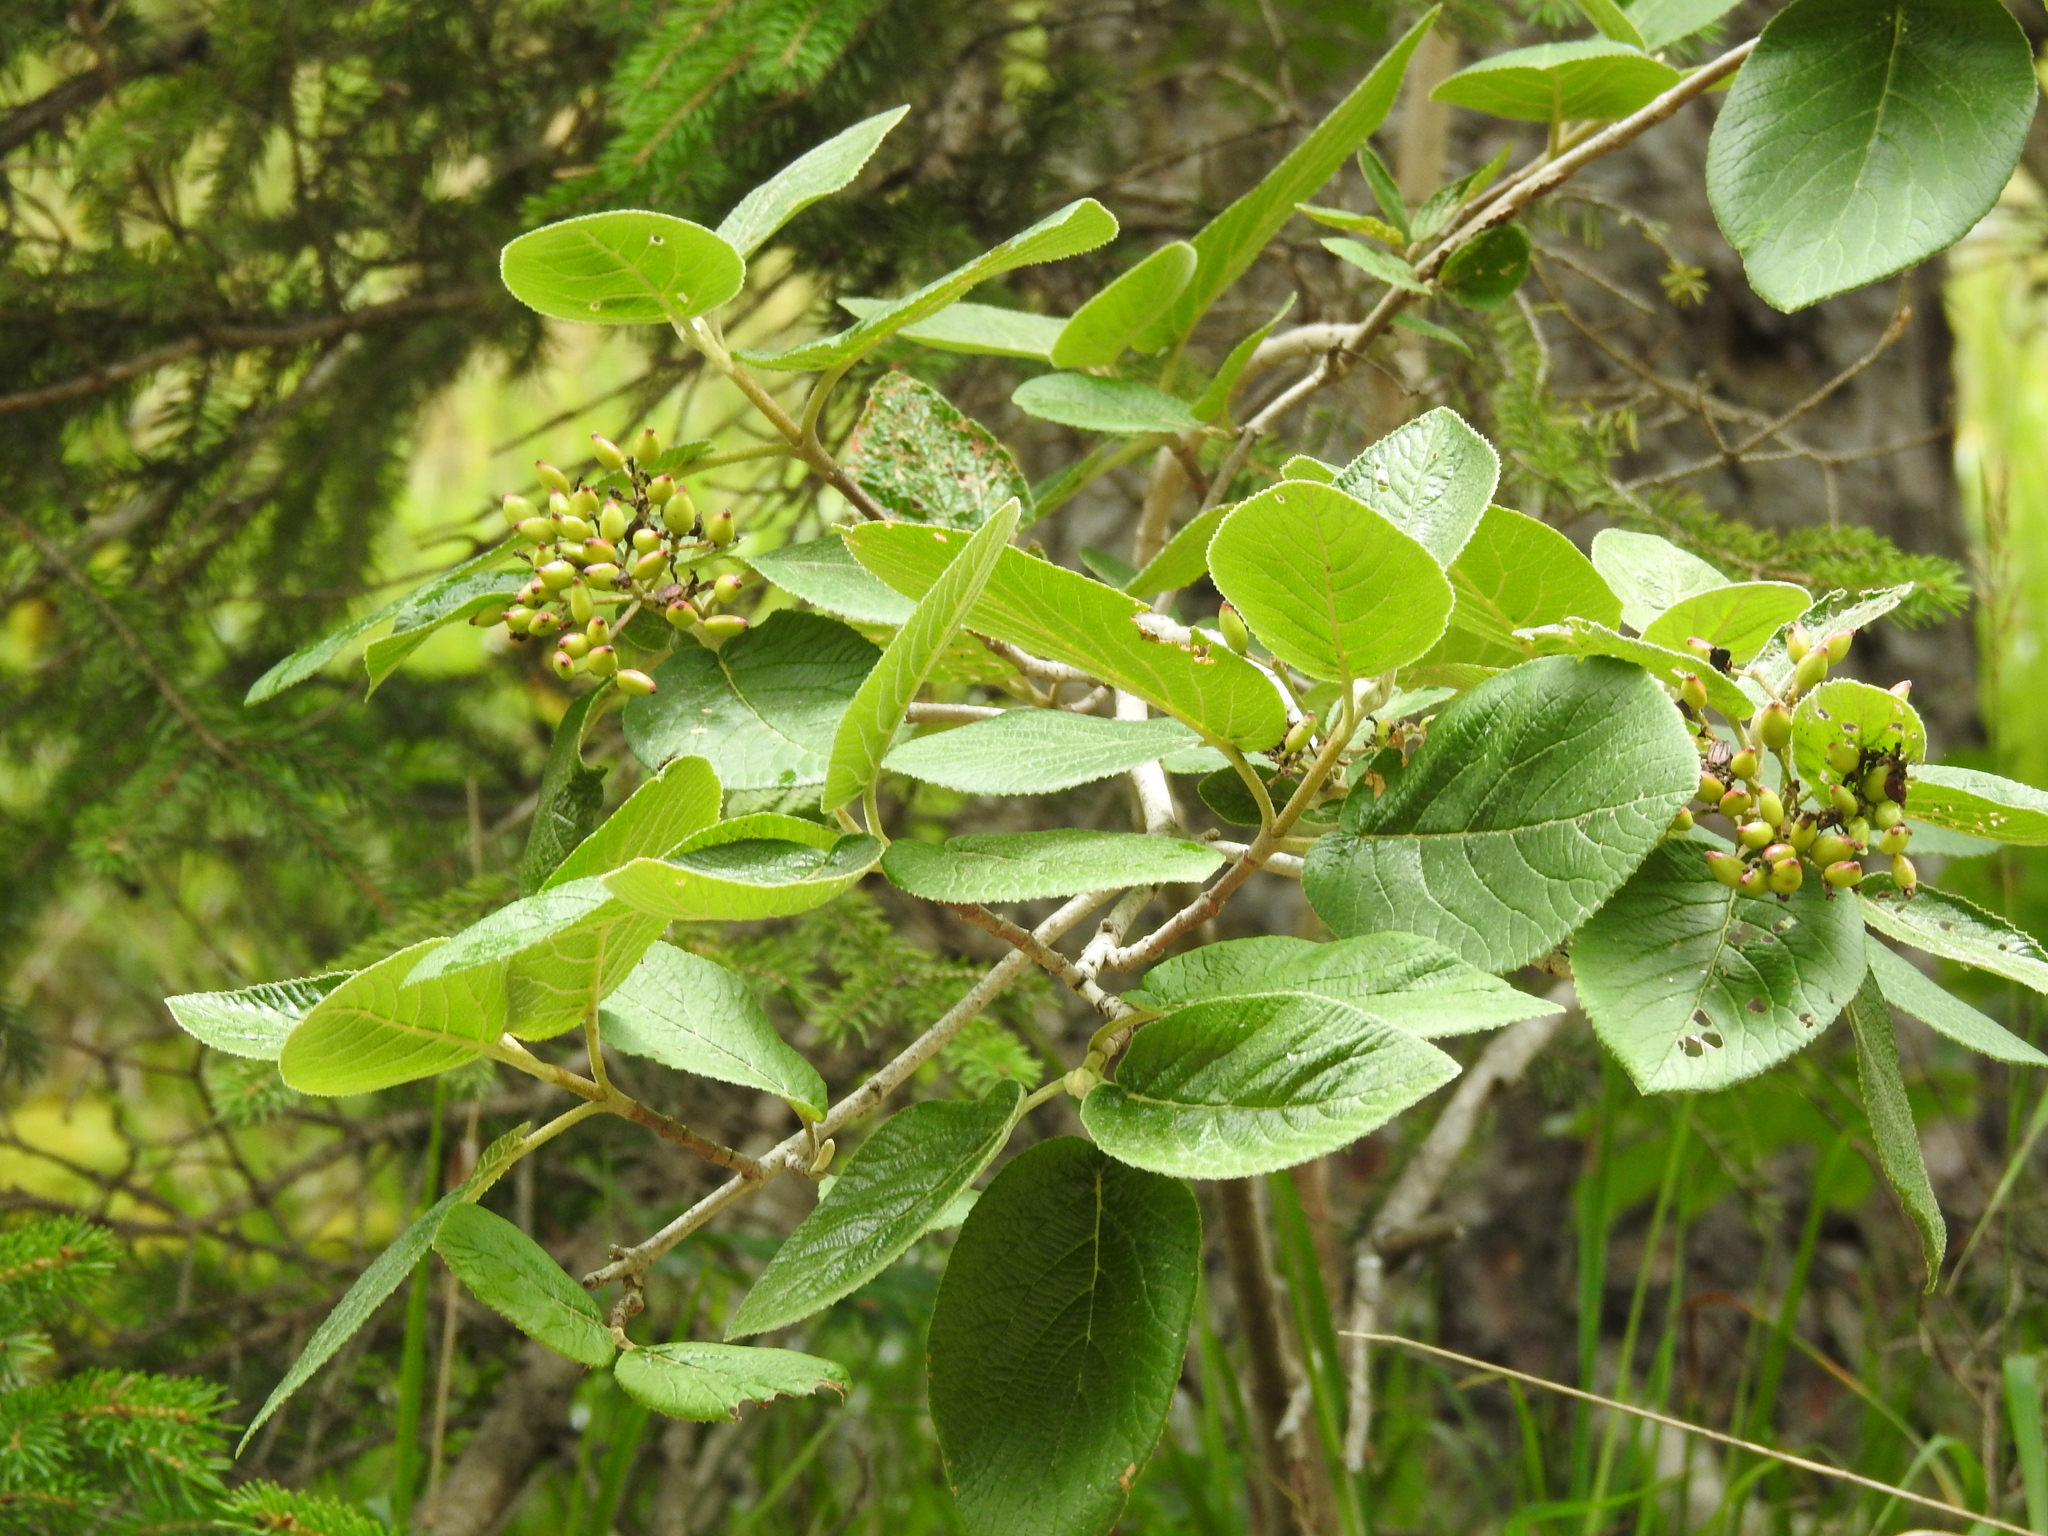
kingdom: Plantae
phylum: Tracheophyta
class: Magnoliopsida
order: Dipsacales
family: Viburnaceae
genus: Viburnum
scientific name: Viburnum lantana
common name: Wayfaring tree
